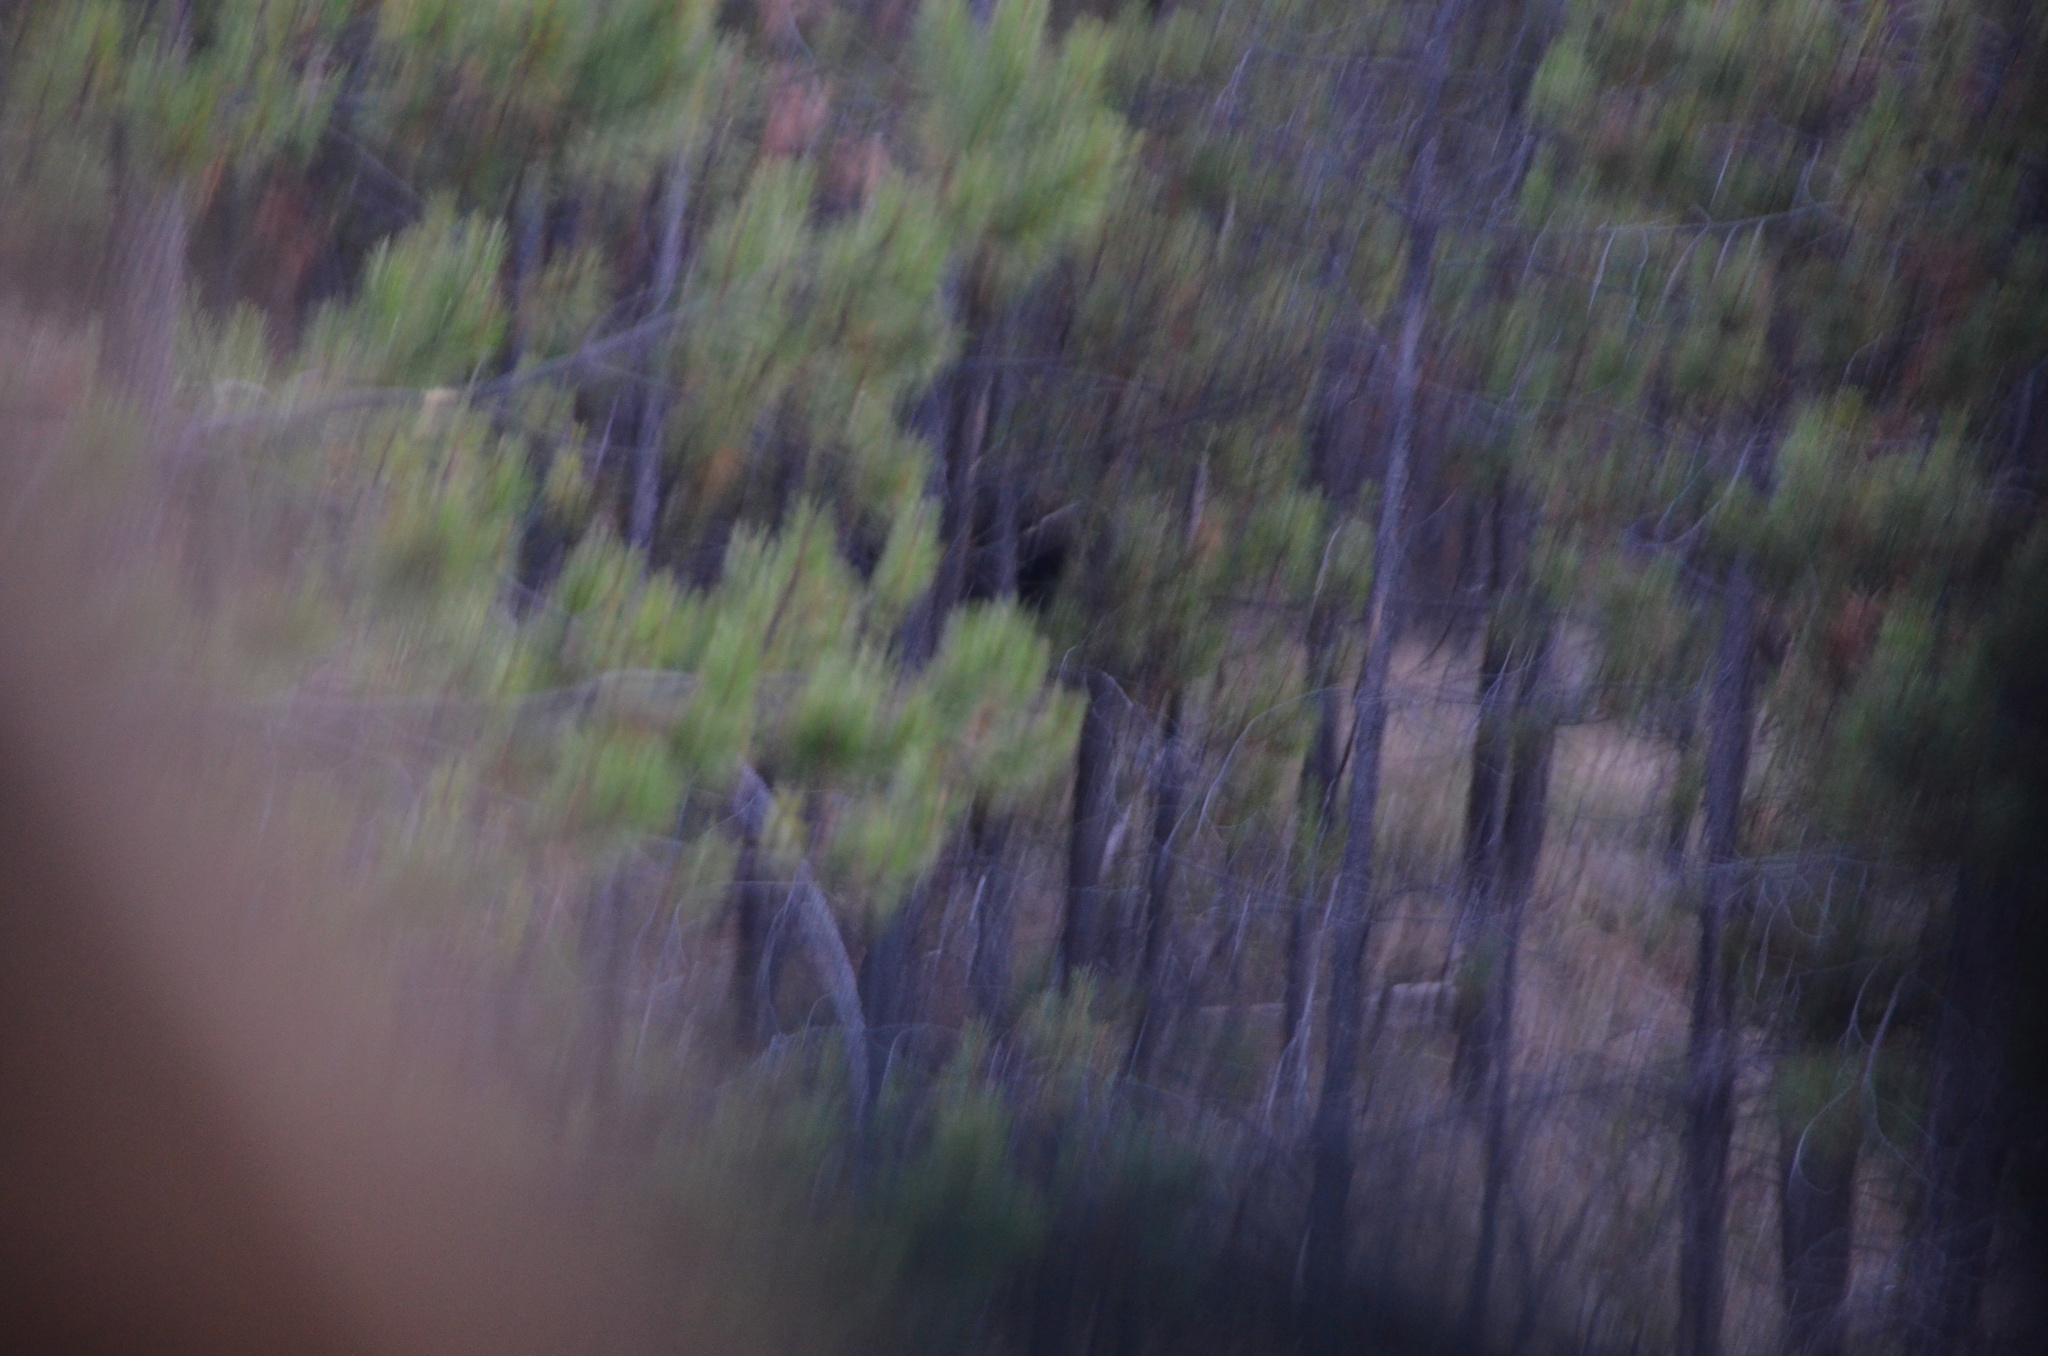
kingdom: Animalia
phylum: Chordata
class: Mammalia
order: Carnivora
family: Ursidae
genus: Ursus
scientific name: Ursus americanus
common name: American black bear
